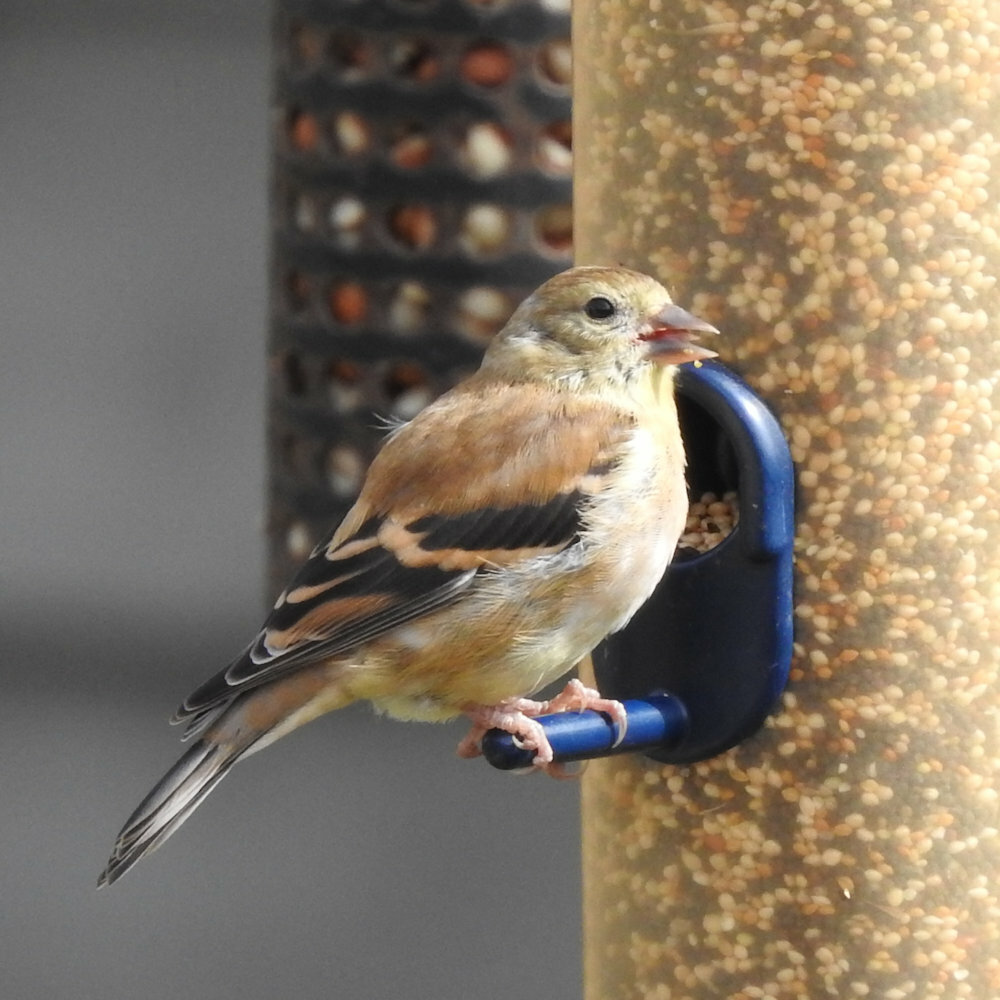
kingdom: Animalia
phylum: Chordata
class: Aves
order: Passeriformes
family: Fringillidae
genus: Spinus
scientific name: Spinus tristis
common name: American goldfinch
